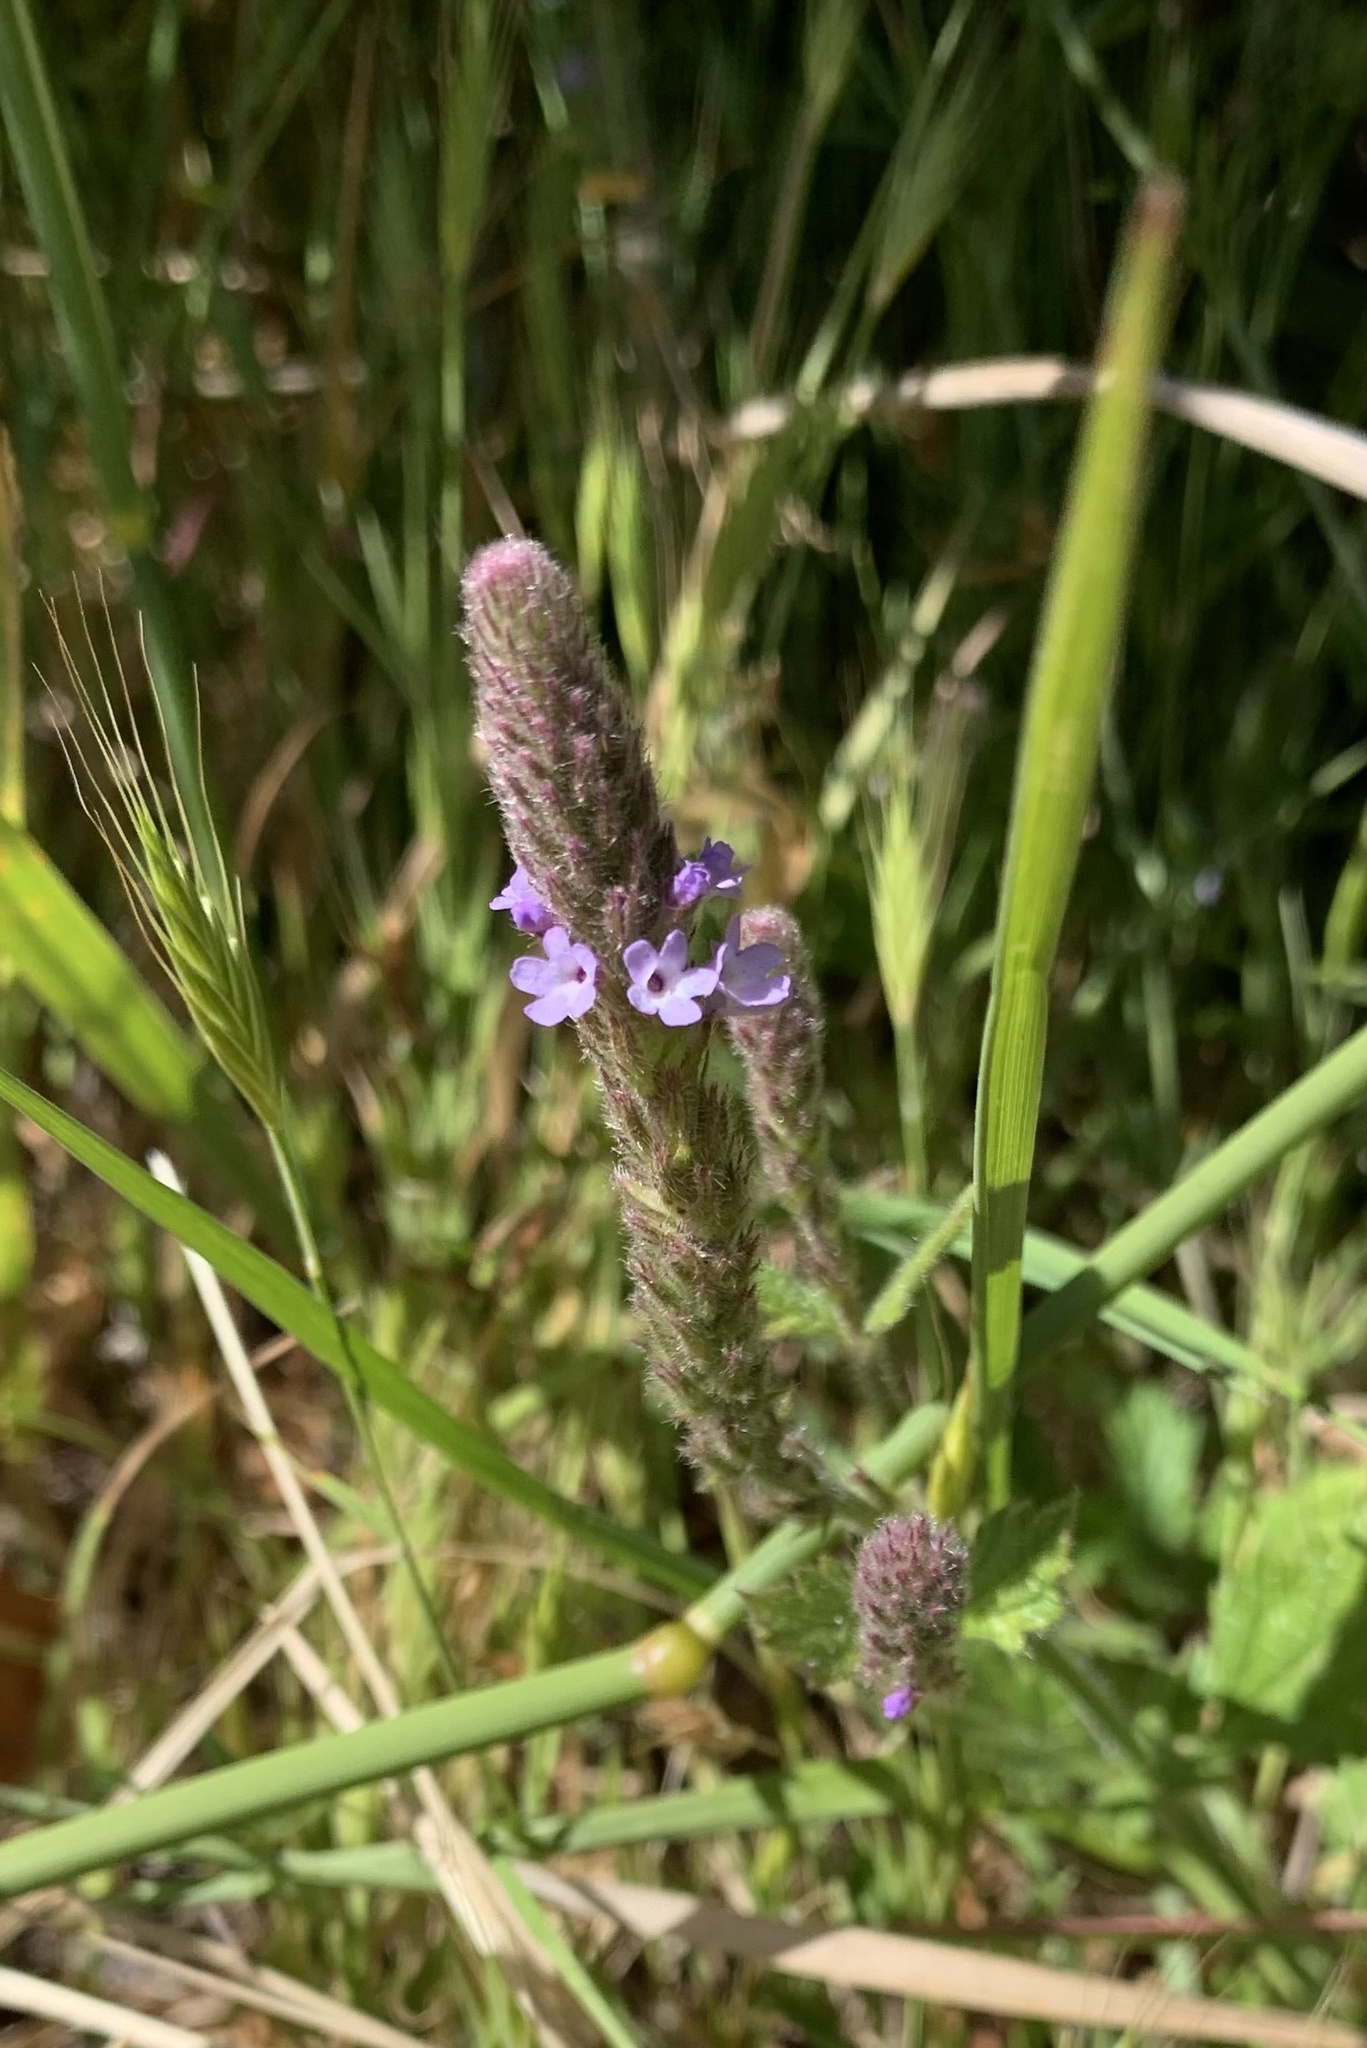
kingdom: Plantae
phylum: Tracheophyta
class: Magnoliopsida
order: Lamiales
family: Verbenaceae
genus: Verbena
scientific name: Verbena lasiostachys
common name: Vervain
